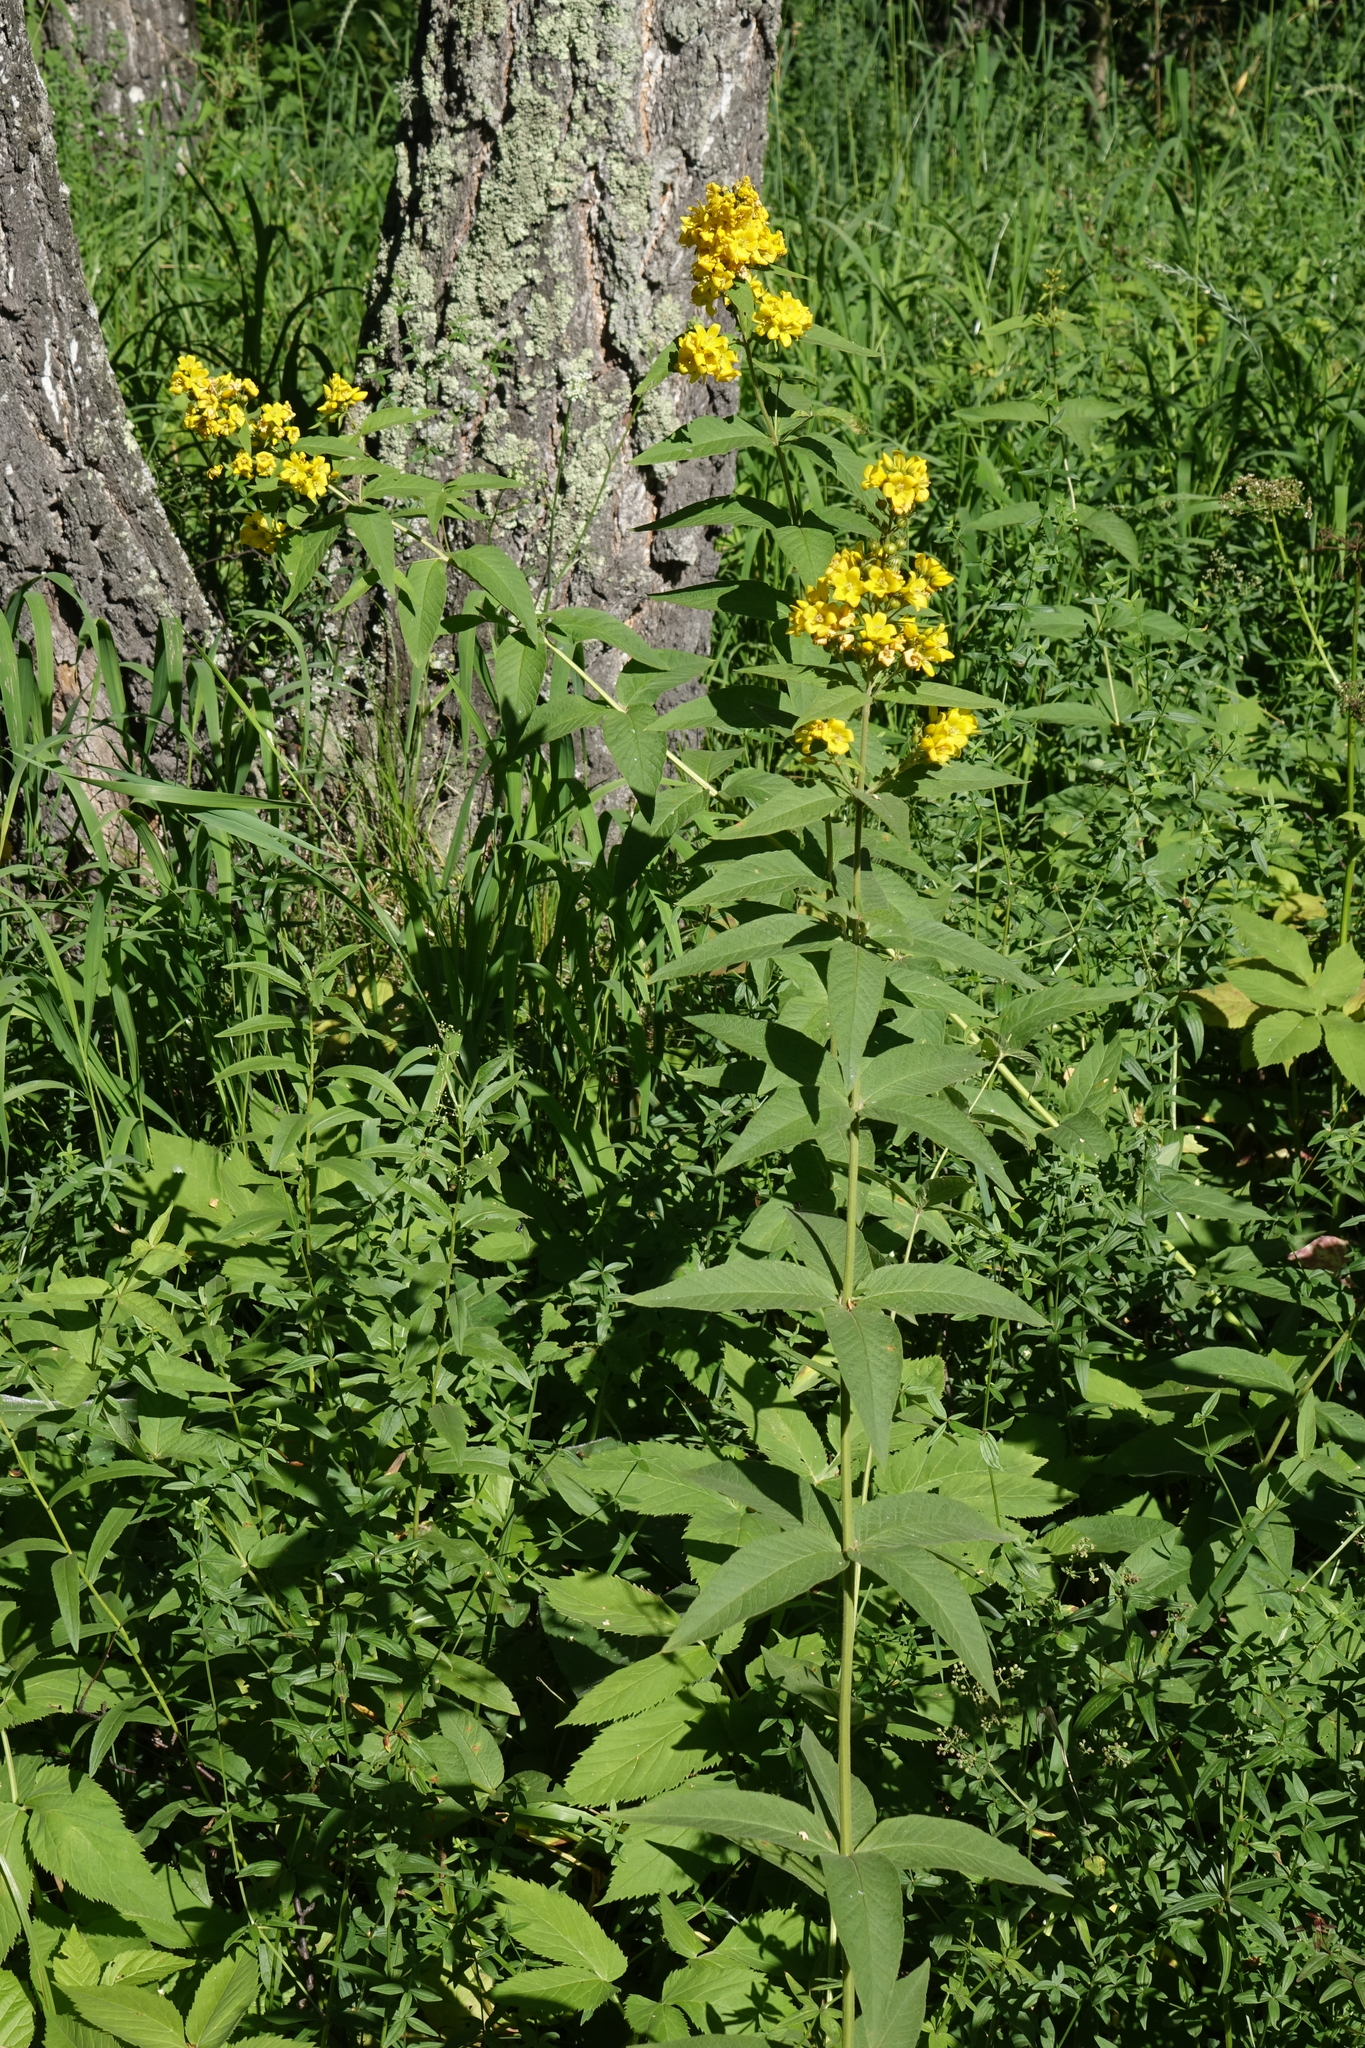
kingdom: Plantae
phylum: Tracheophyta
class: Magnoliopsida
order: Ericales
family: Primulaceae
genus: Lysimachia
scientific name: Lysimachia vulgaris
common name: Yellow loosestrife
